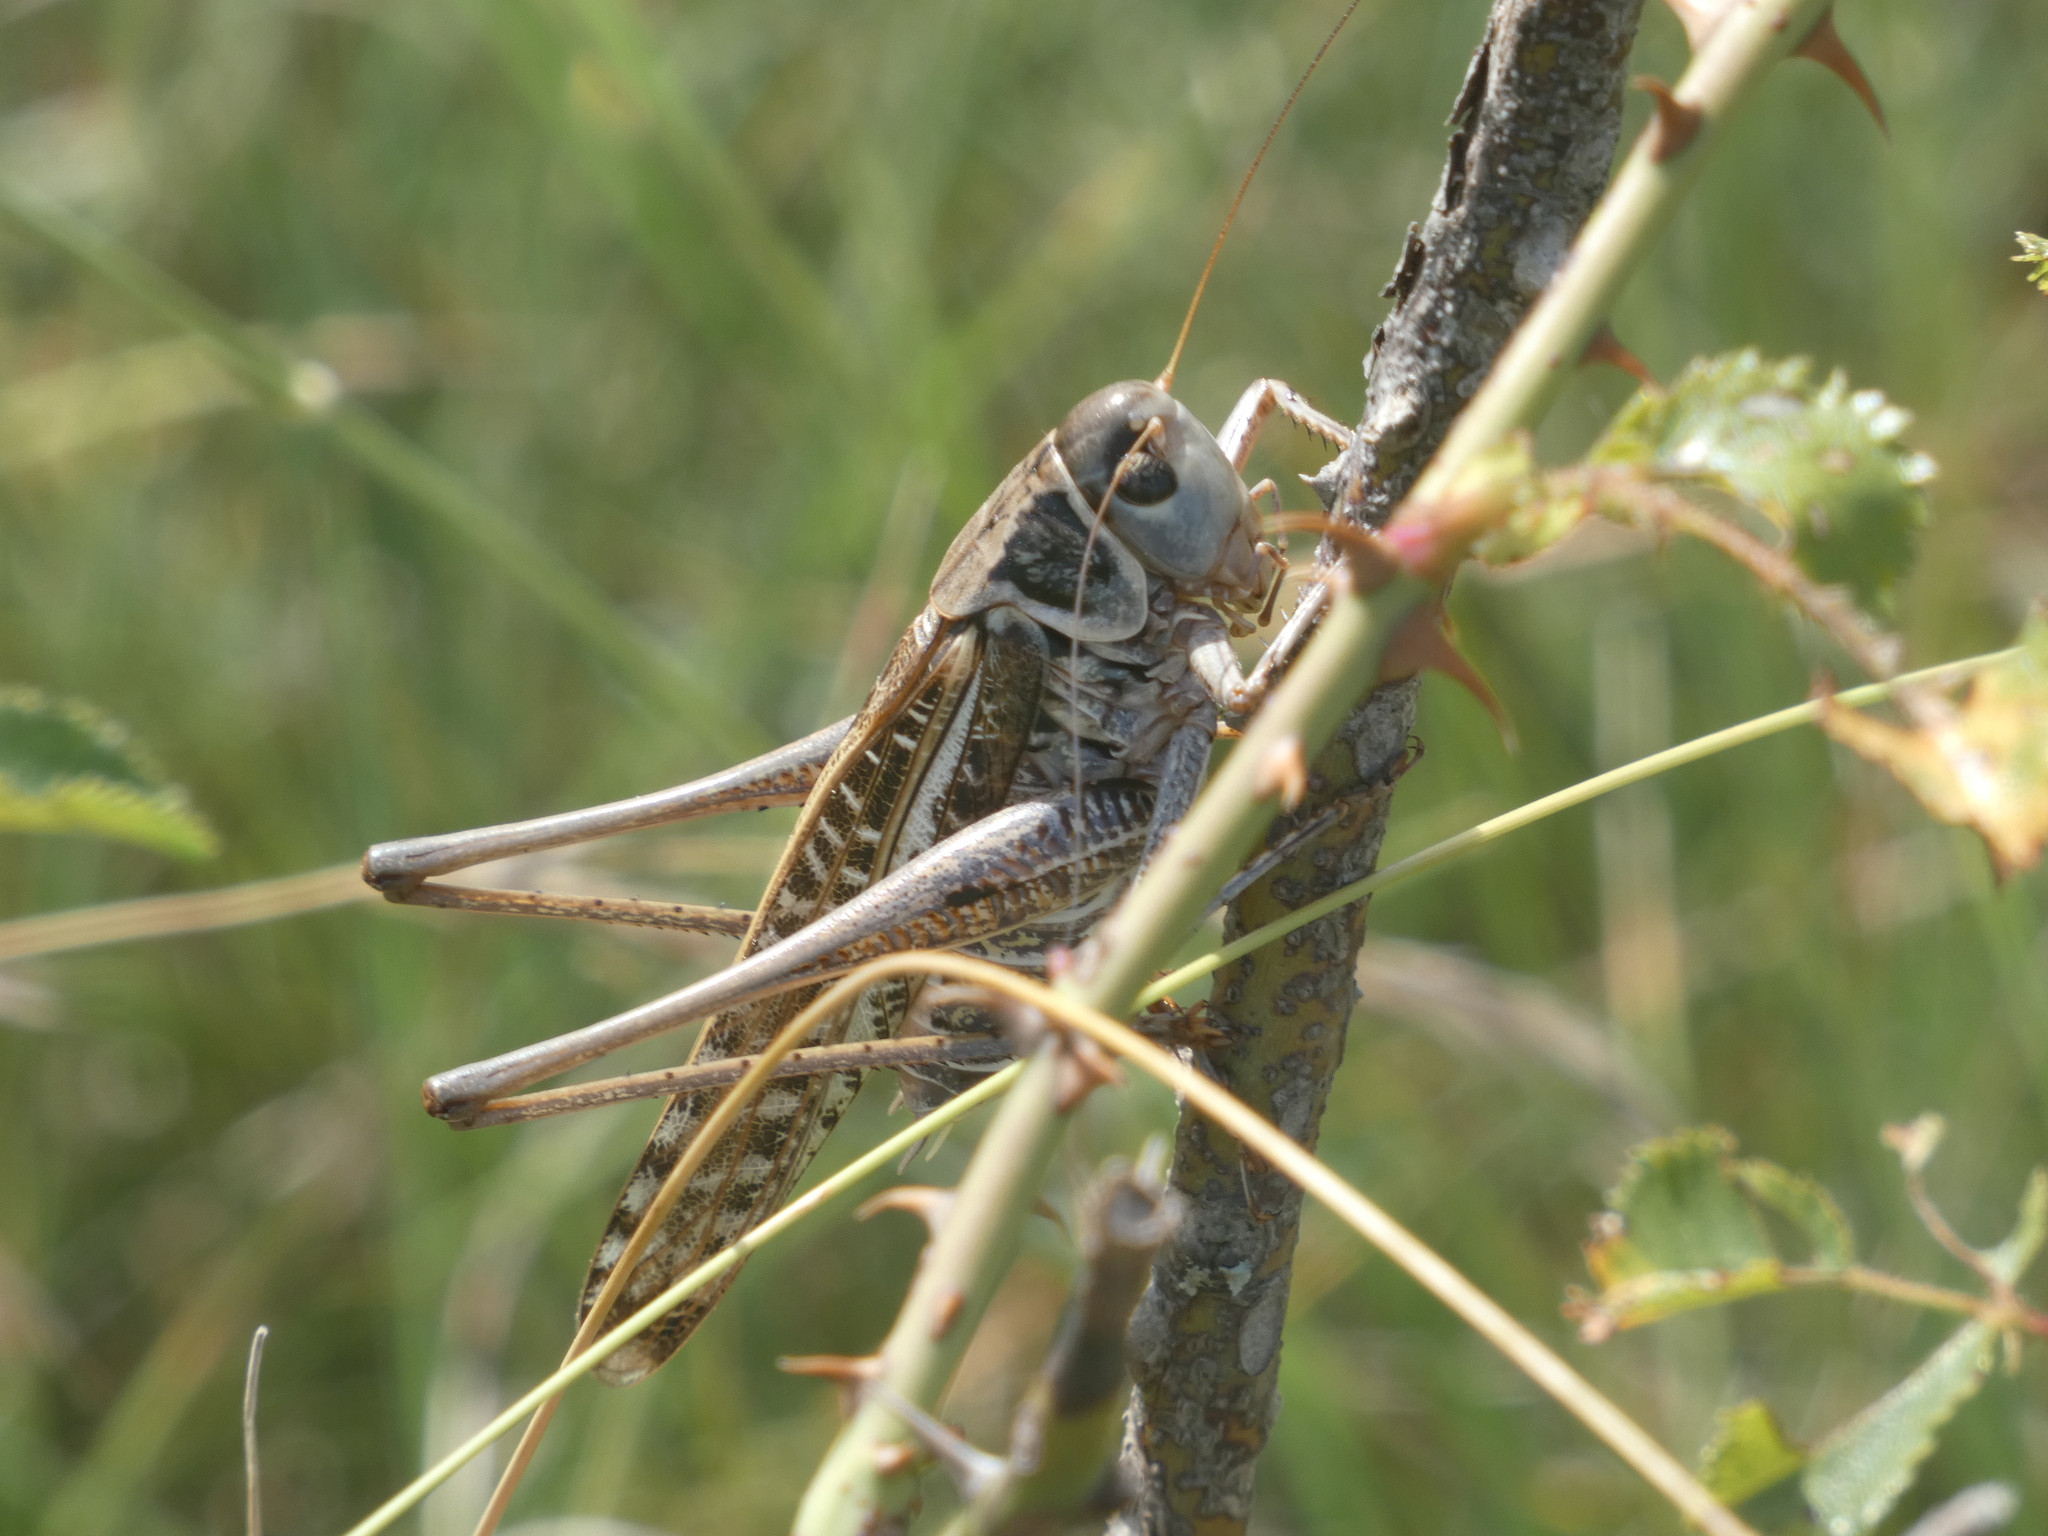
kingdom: Animalia
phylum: Arthropoda
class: Insecta
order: Orthoptera
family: Tettigoniidae
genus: Decticus
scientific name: Decticus albifrons
